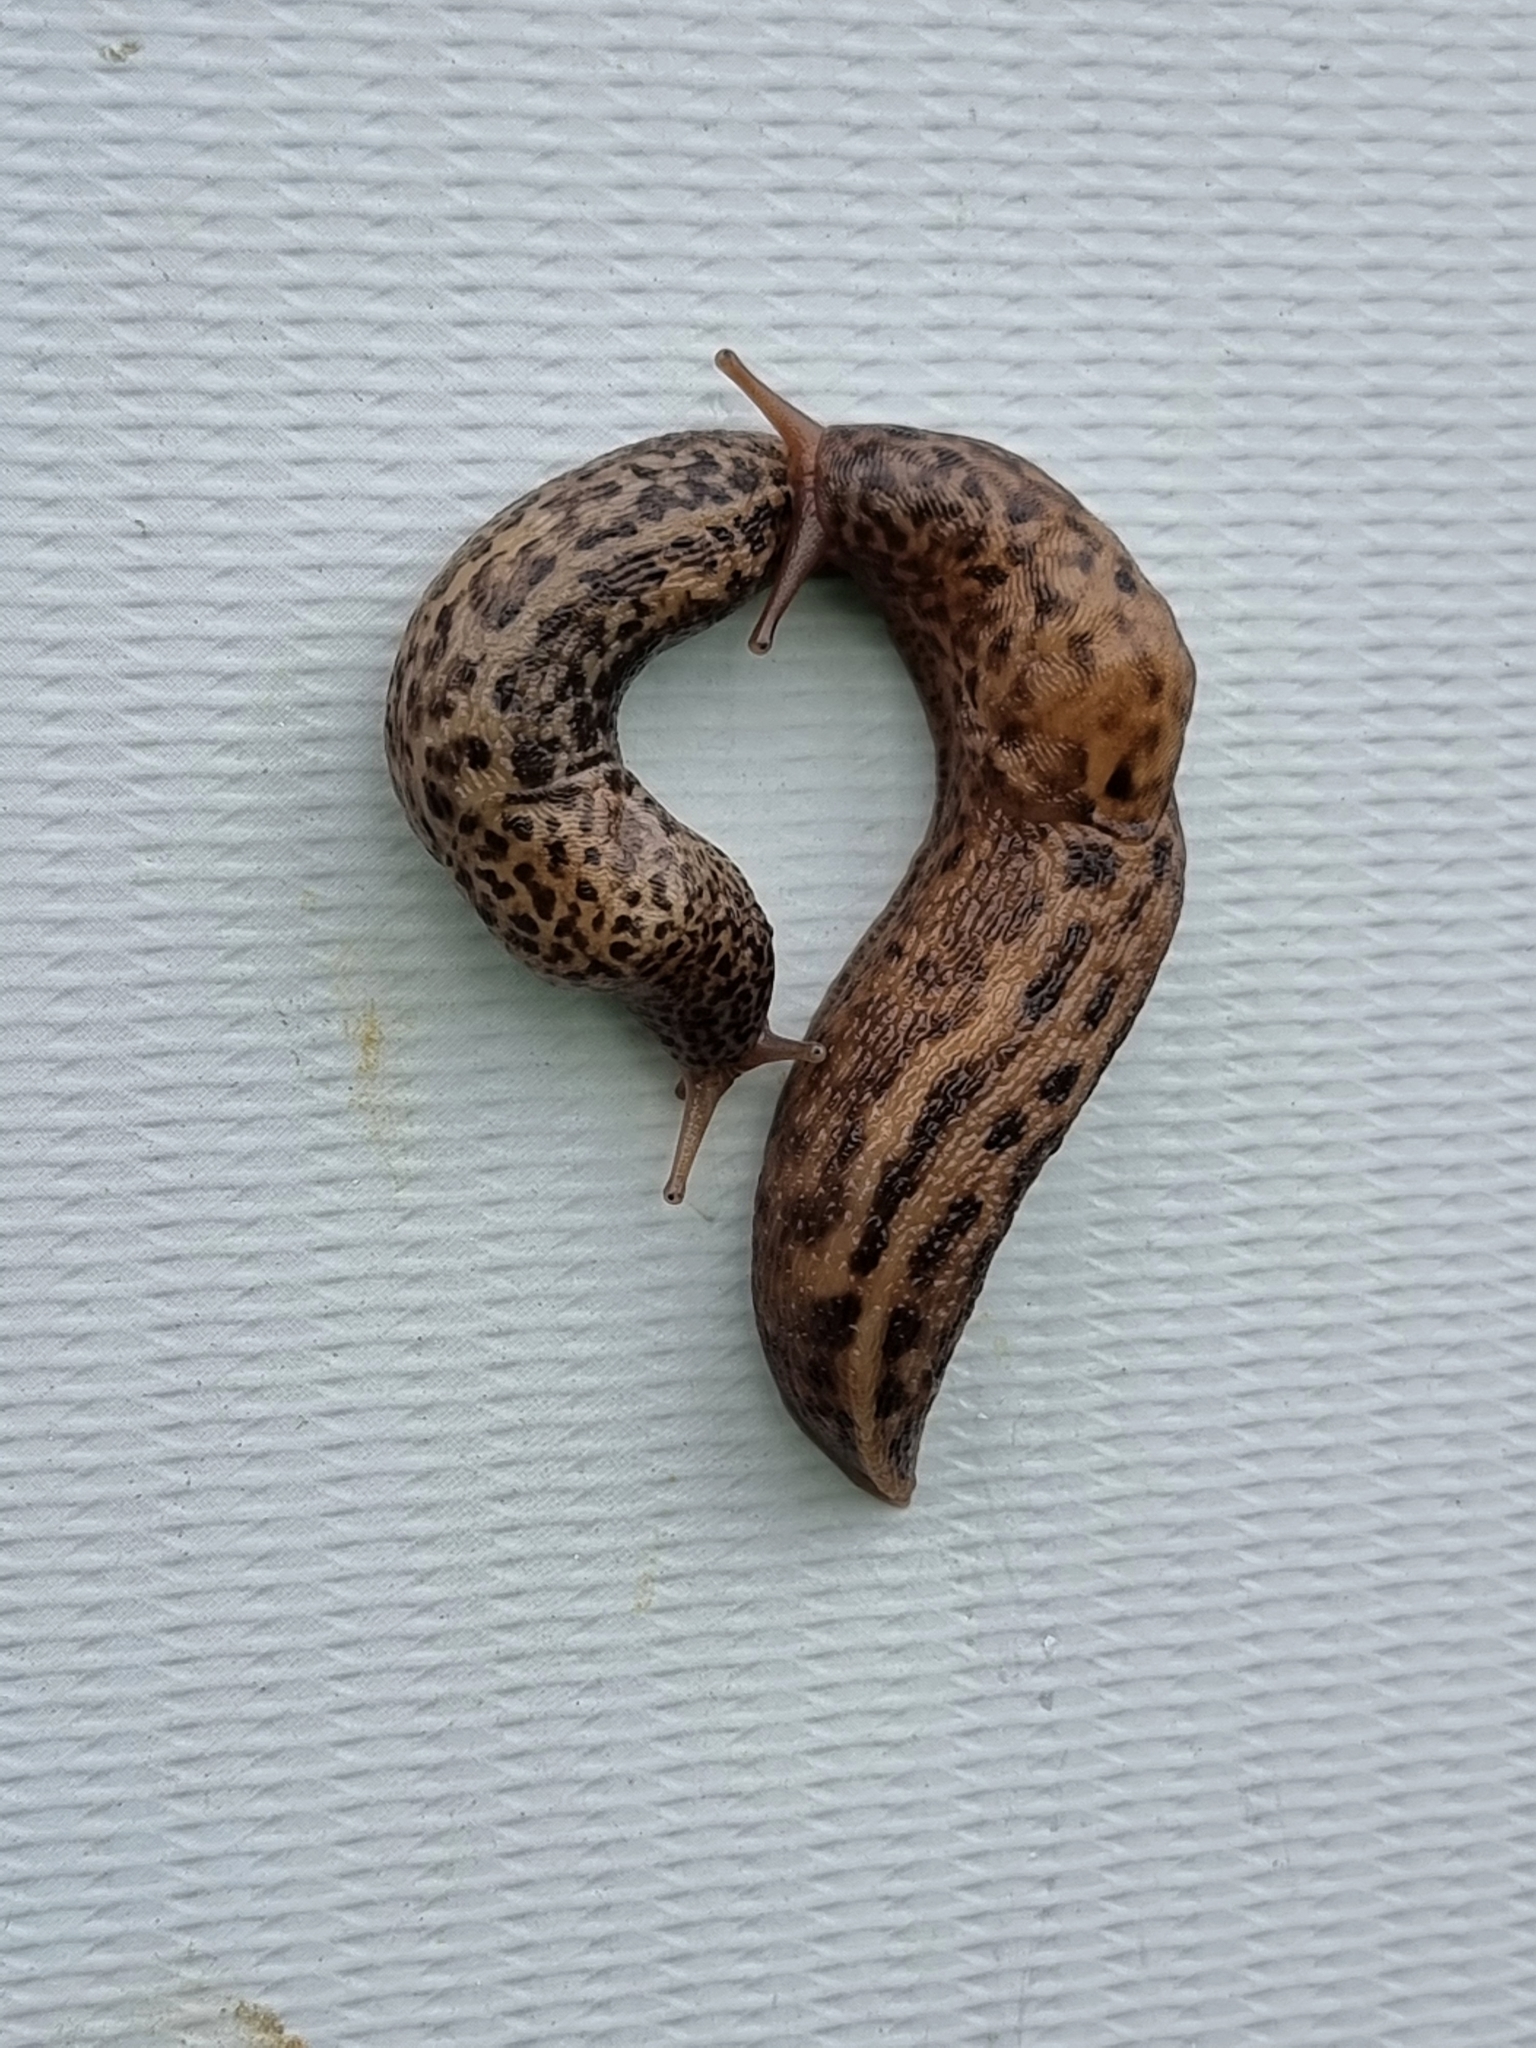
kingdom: Animalia
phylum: Mollusca
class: Gastropoda
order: Stylommatophora
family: Limacidae
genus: Limax
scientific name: Limax maximus
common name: Great grey slug
